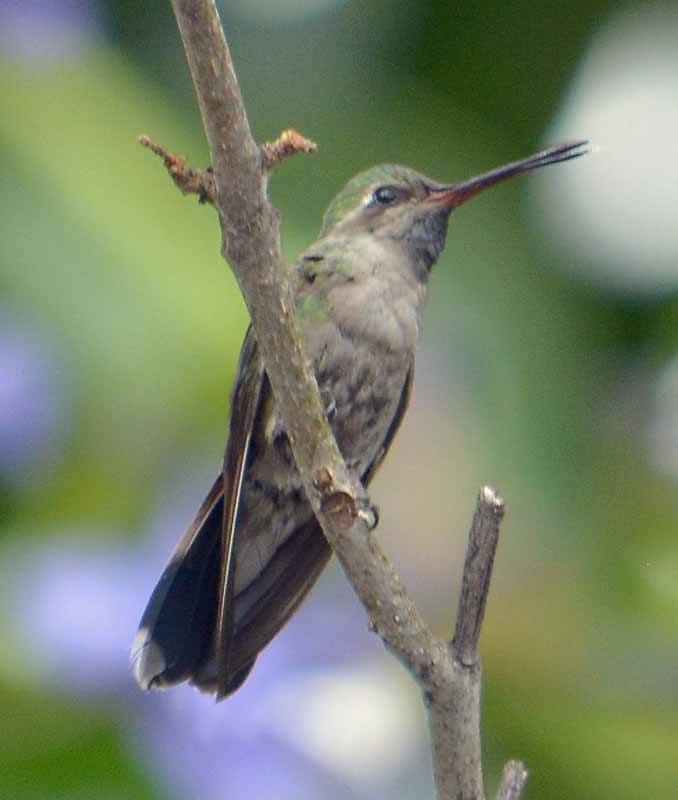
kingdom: Animalia
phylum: Chordata
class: Aves
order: Apodiformes
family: Trochilidae
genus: Cynanthus
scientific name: Cynanthus latirostris
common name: Broad-billed hummingbird
